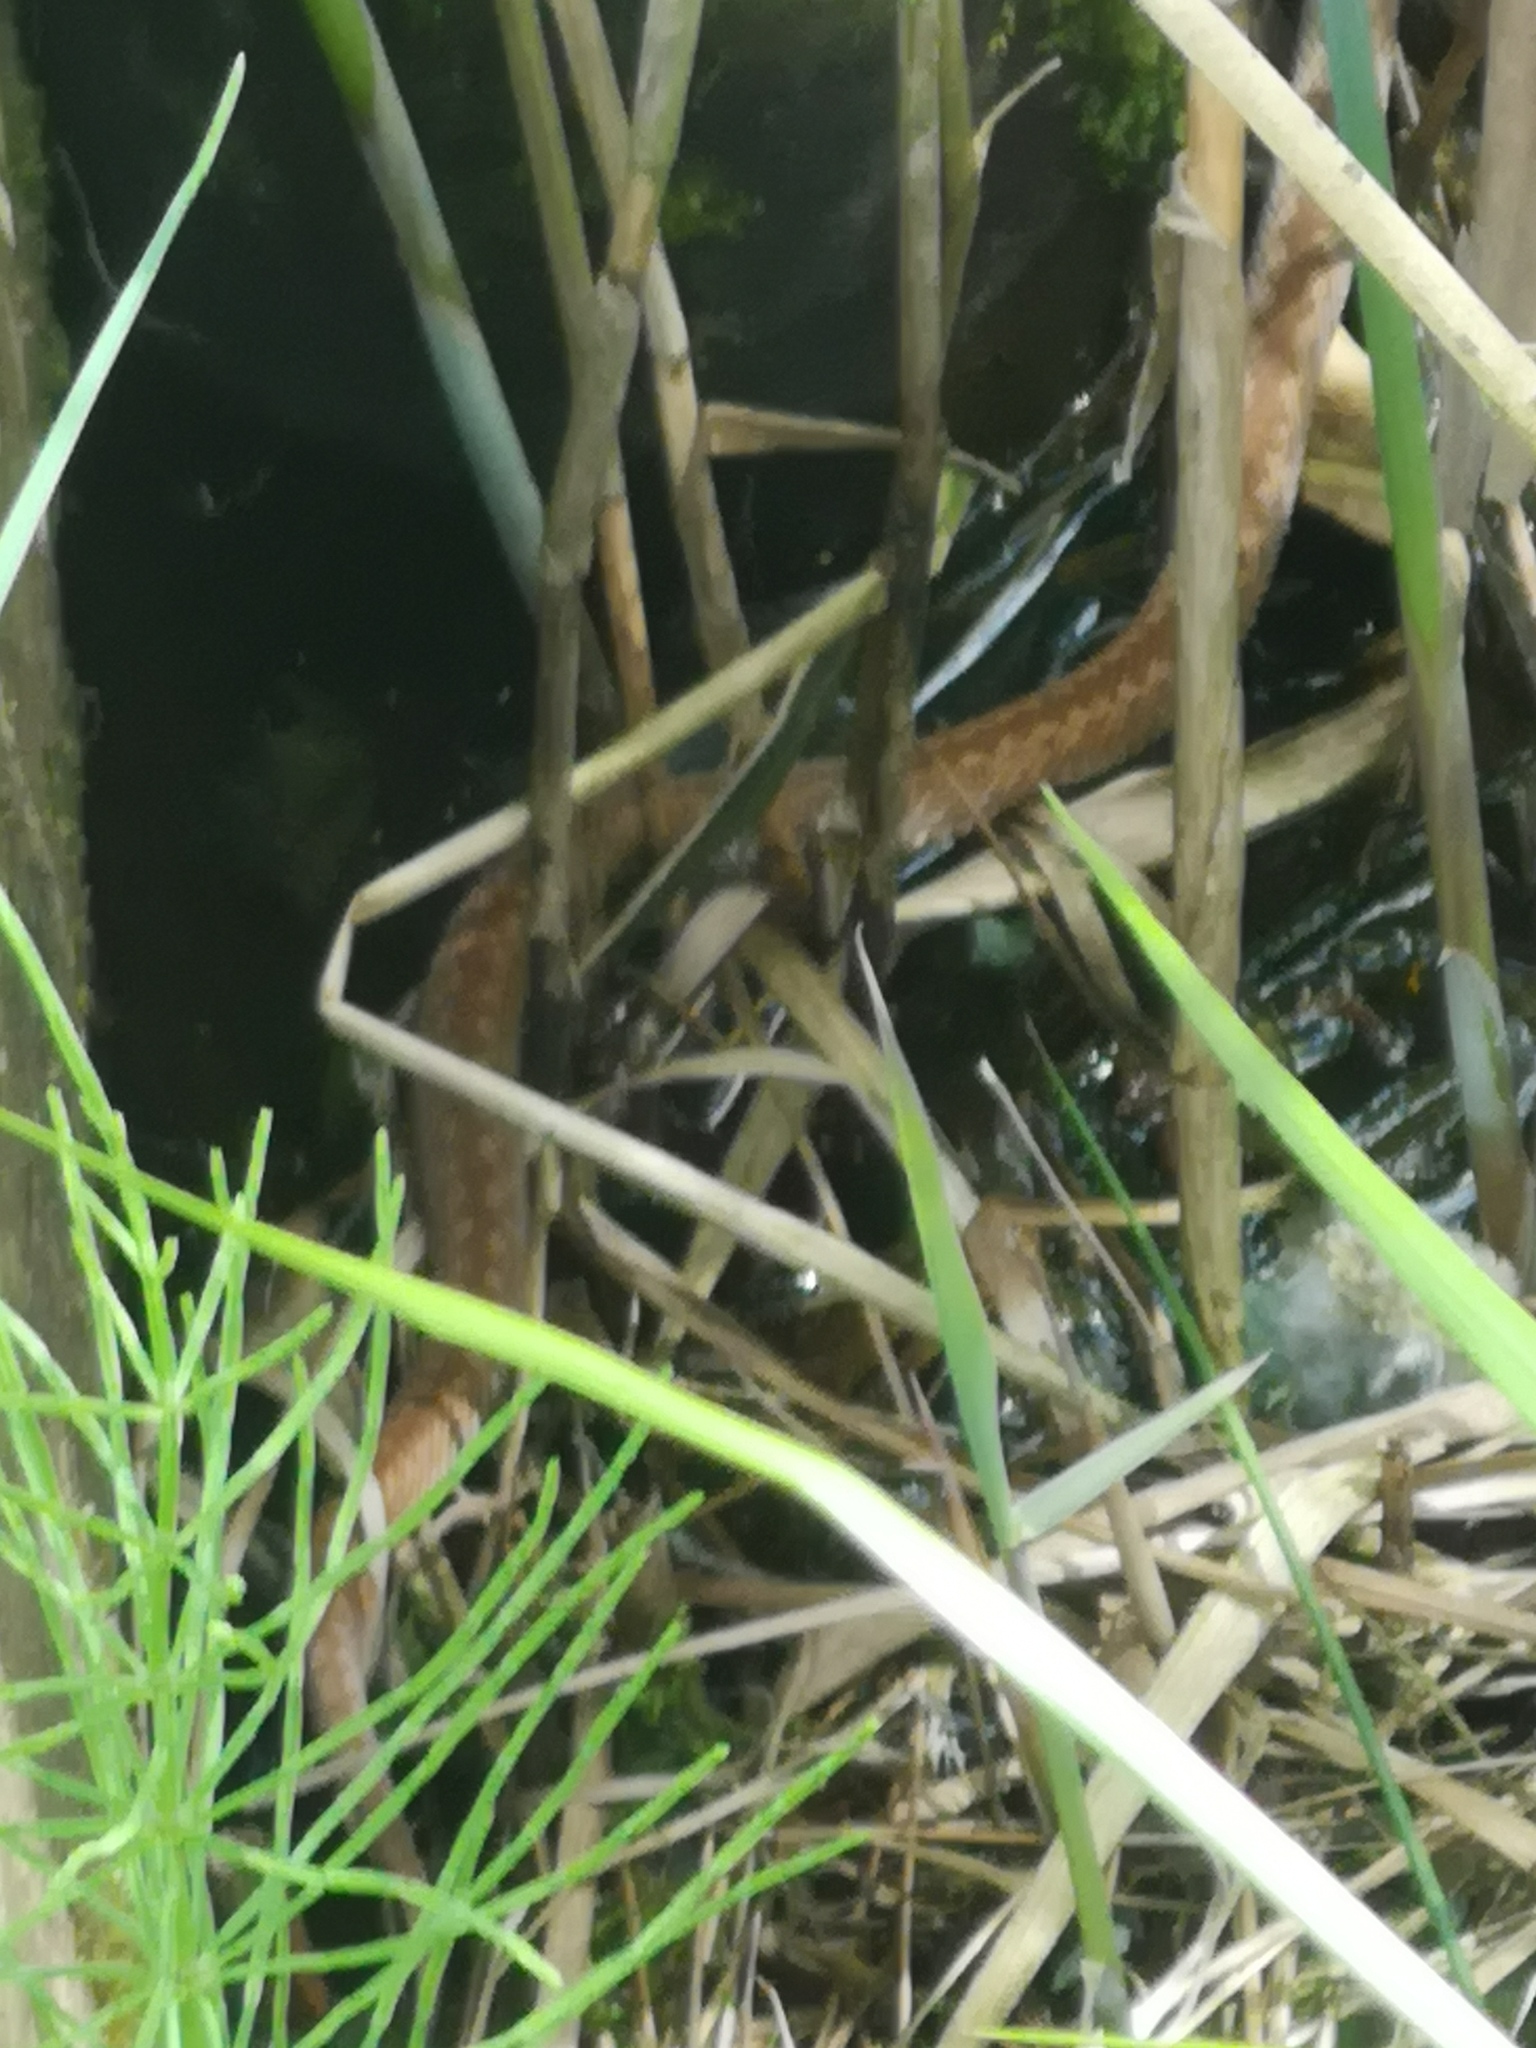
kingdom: Animalia
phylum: Chordata
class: Squamata
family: Viperidae
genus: Vipera
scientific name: Vipera berus
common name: Adder
